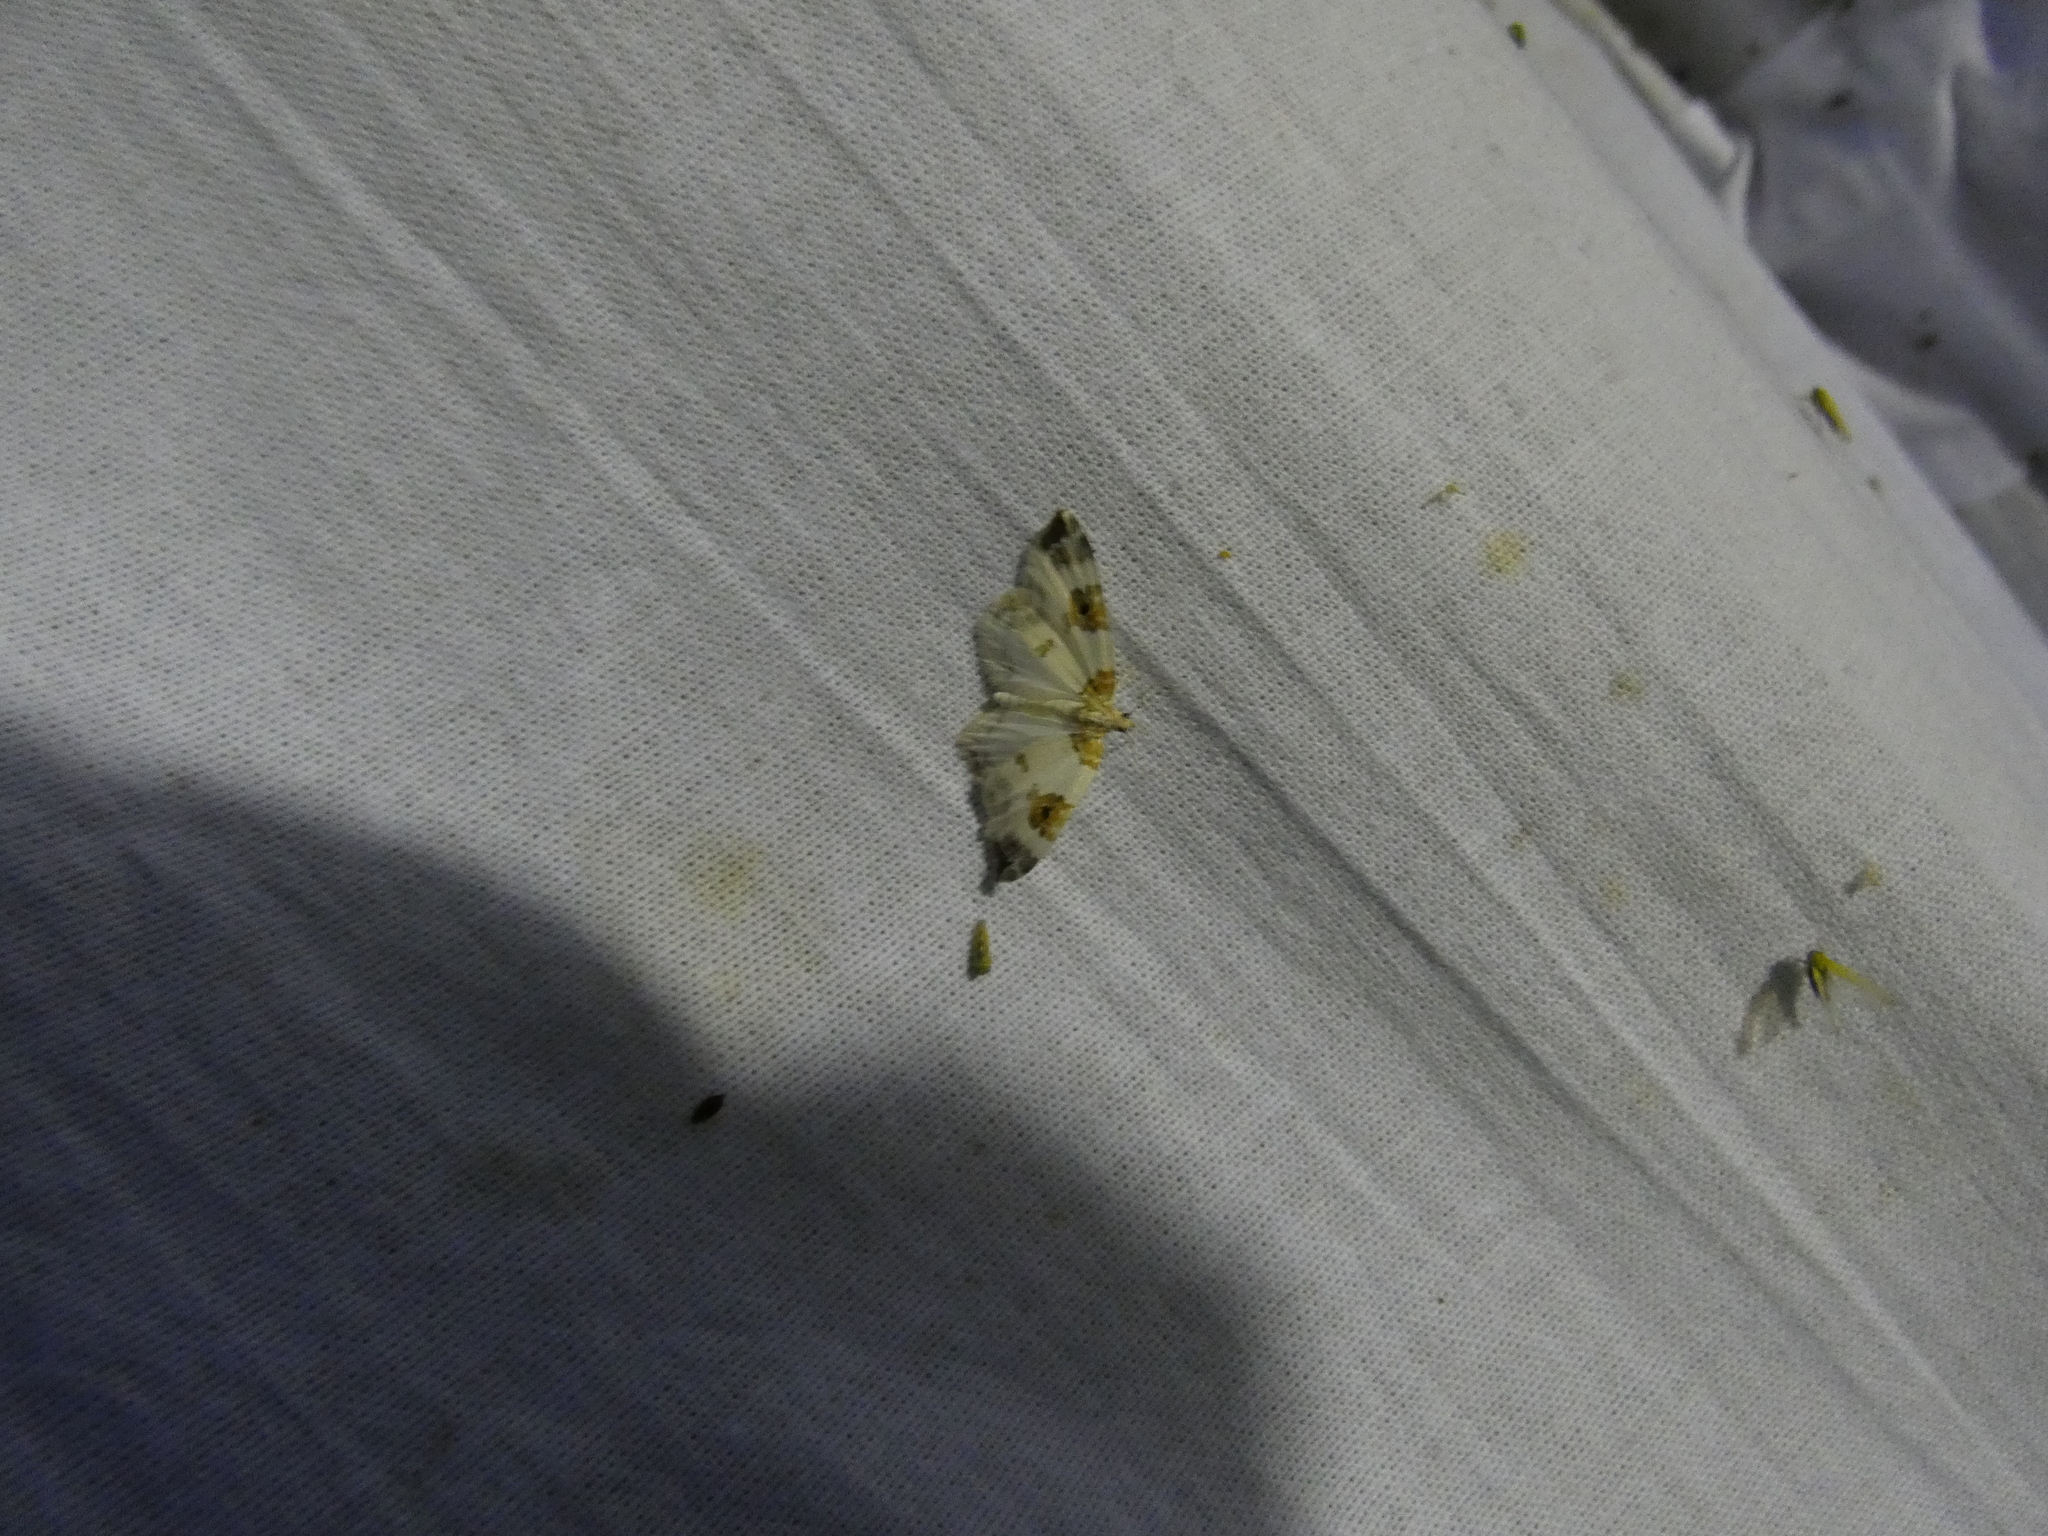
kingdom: Animalia
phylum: Arthropoda
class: Insecta
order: Lepidoptera
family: Geometridae
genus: Plemyria
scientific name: Plemyria rubiginata
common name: Blue-bordered carpet
